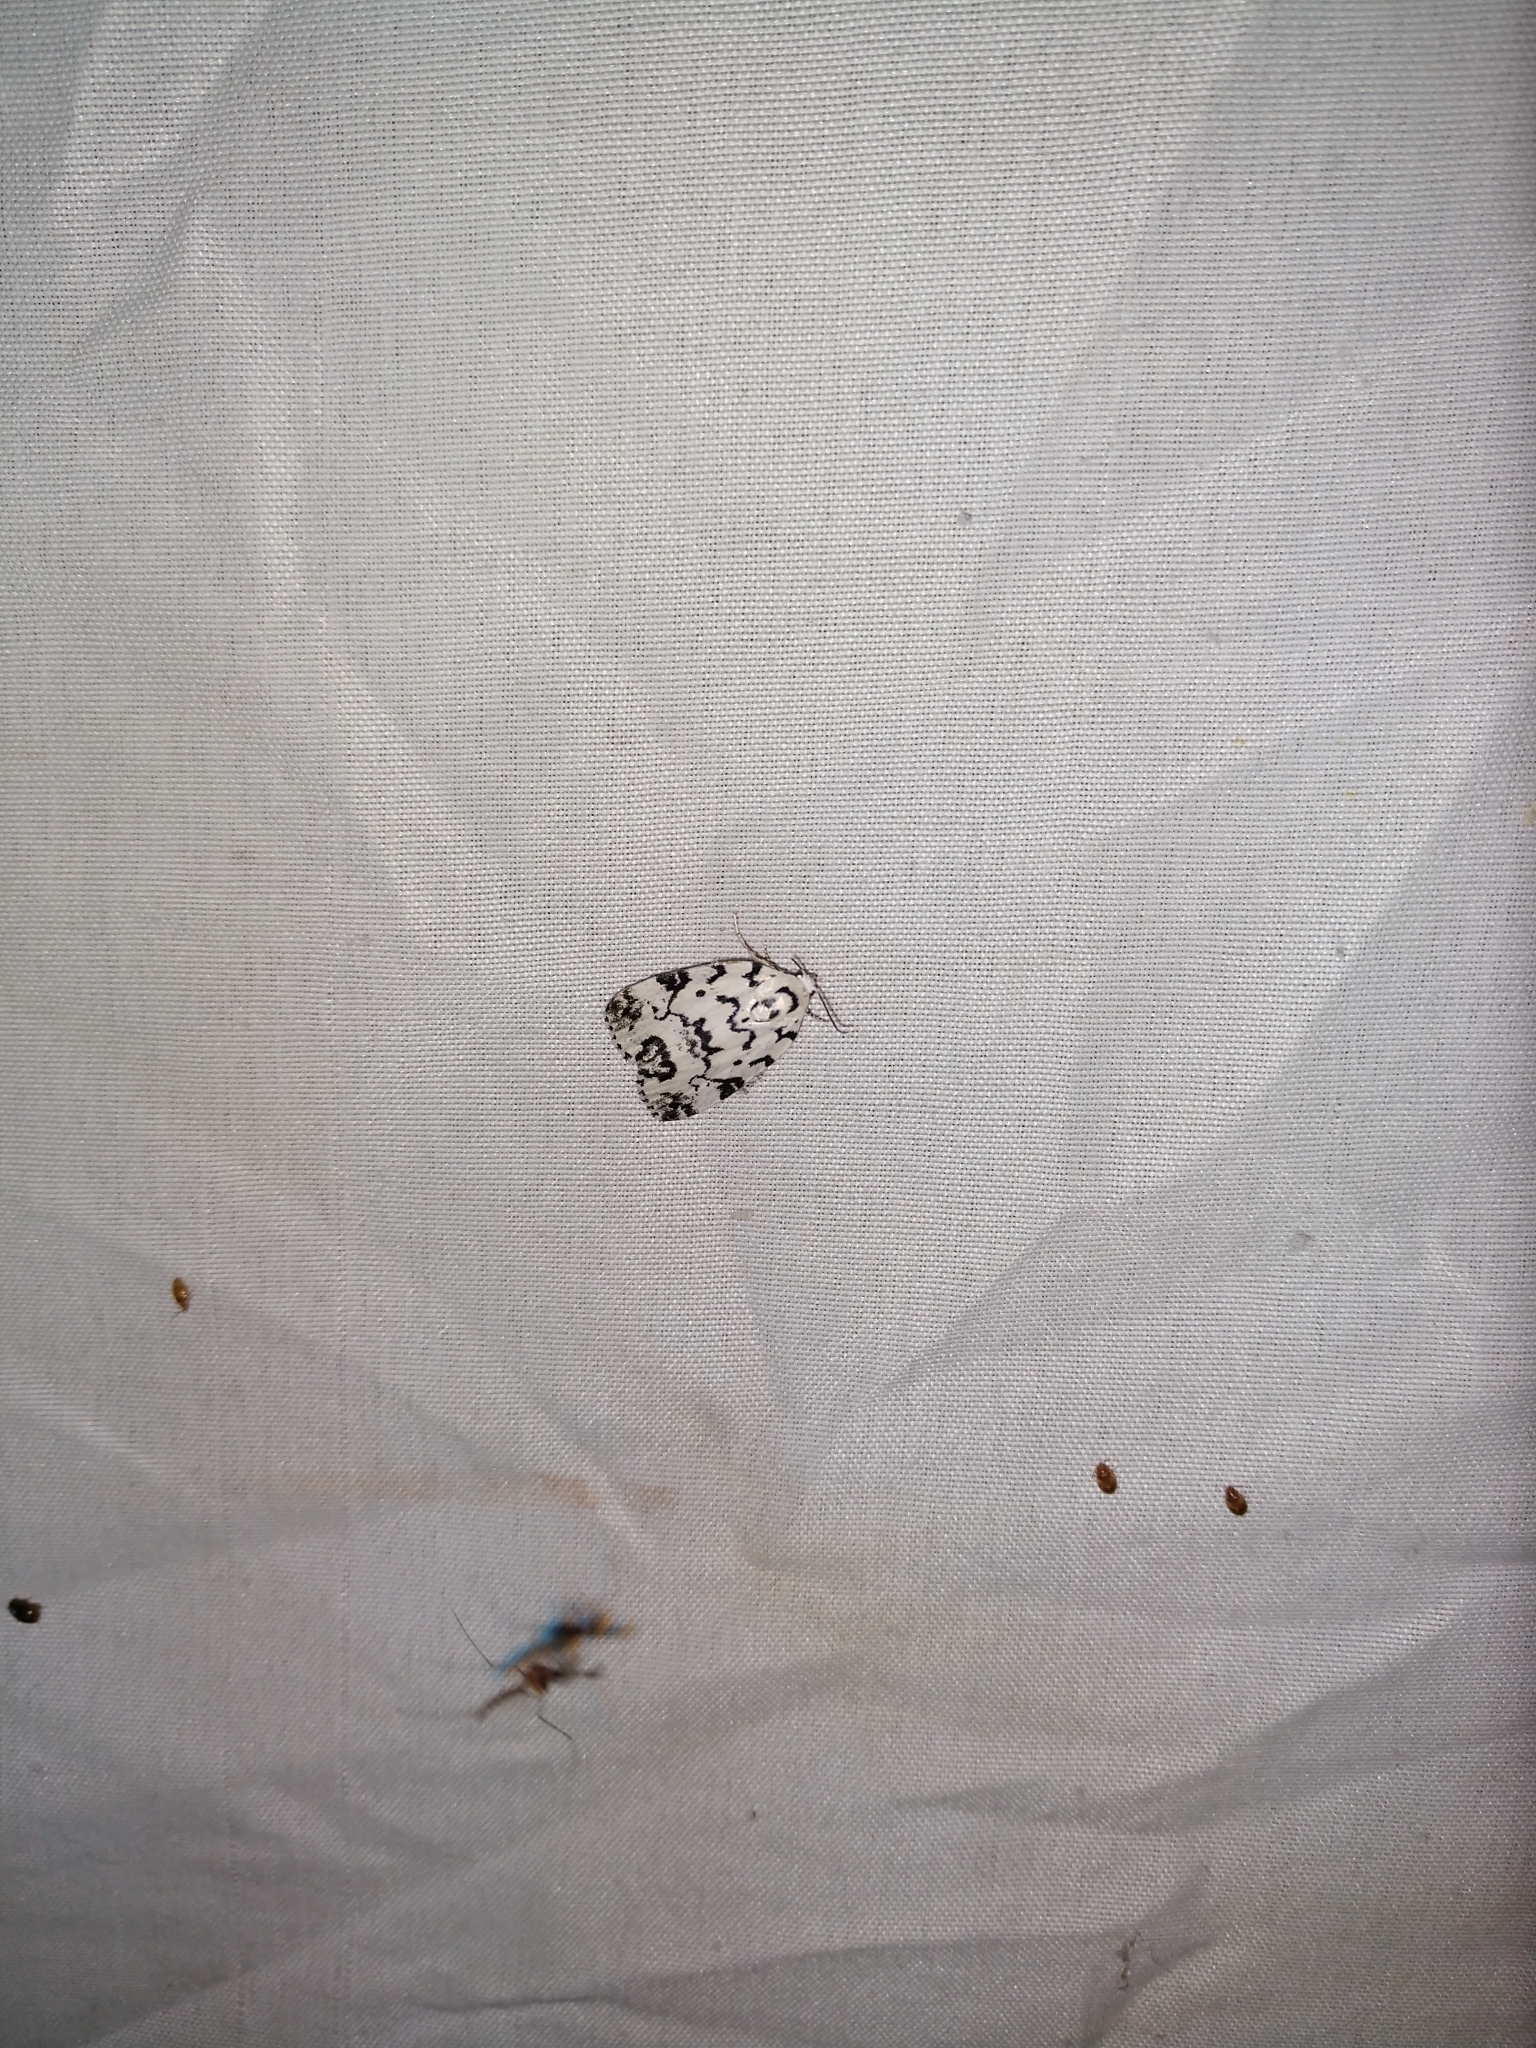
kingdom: Animalia
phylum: Arthropoda
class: Insecta
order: Lepidoptera
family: Noctuidae
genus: Polygrammate
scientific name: Polygrammate hebraeicum
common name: Hebrew moth
